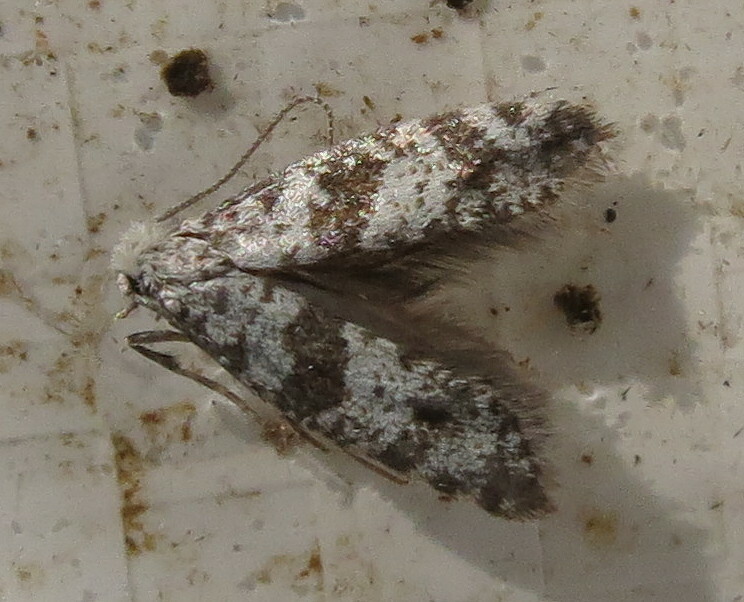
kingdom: Animalia
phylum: Arthropoda
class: Insecta
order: Lepidoptera
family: Yponomeutidae
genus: Scythropia
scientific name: Scythropia crataegella
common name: Hawthorn moth
